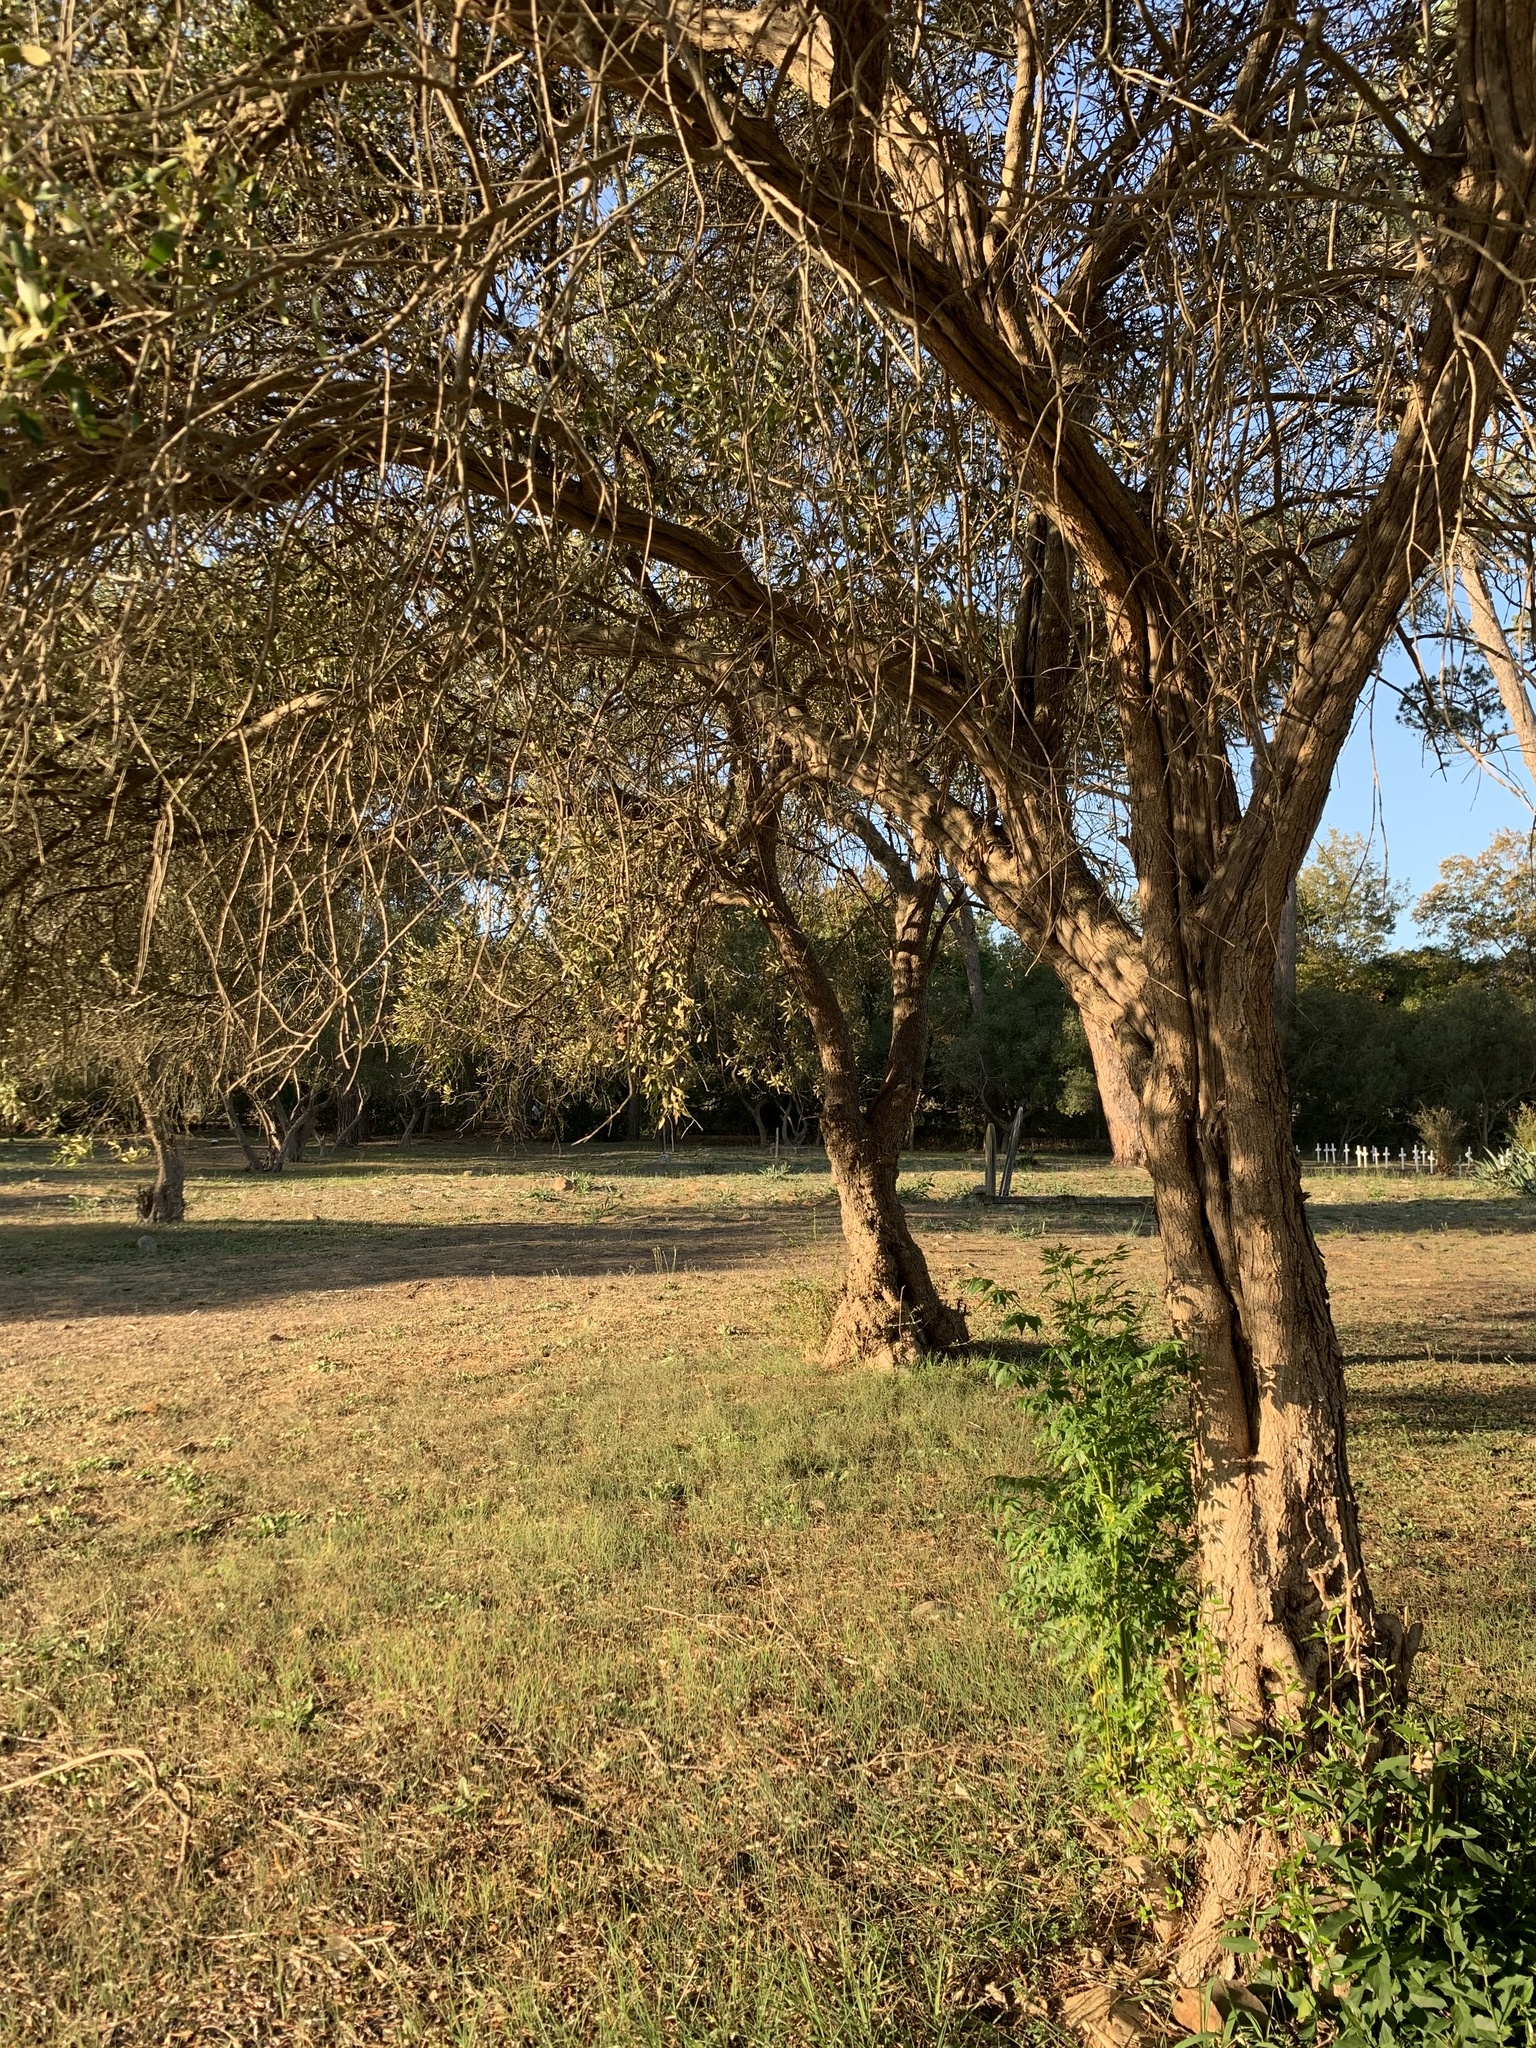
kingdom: Plantae
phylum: Tracheophyta
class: Magnoliopsida
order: Sapindales
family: Meliaceae
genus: Melia
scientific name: Melia azedarach
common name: Chinaberrytree
